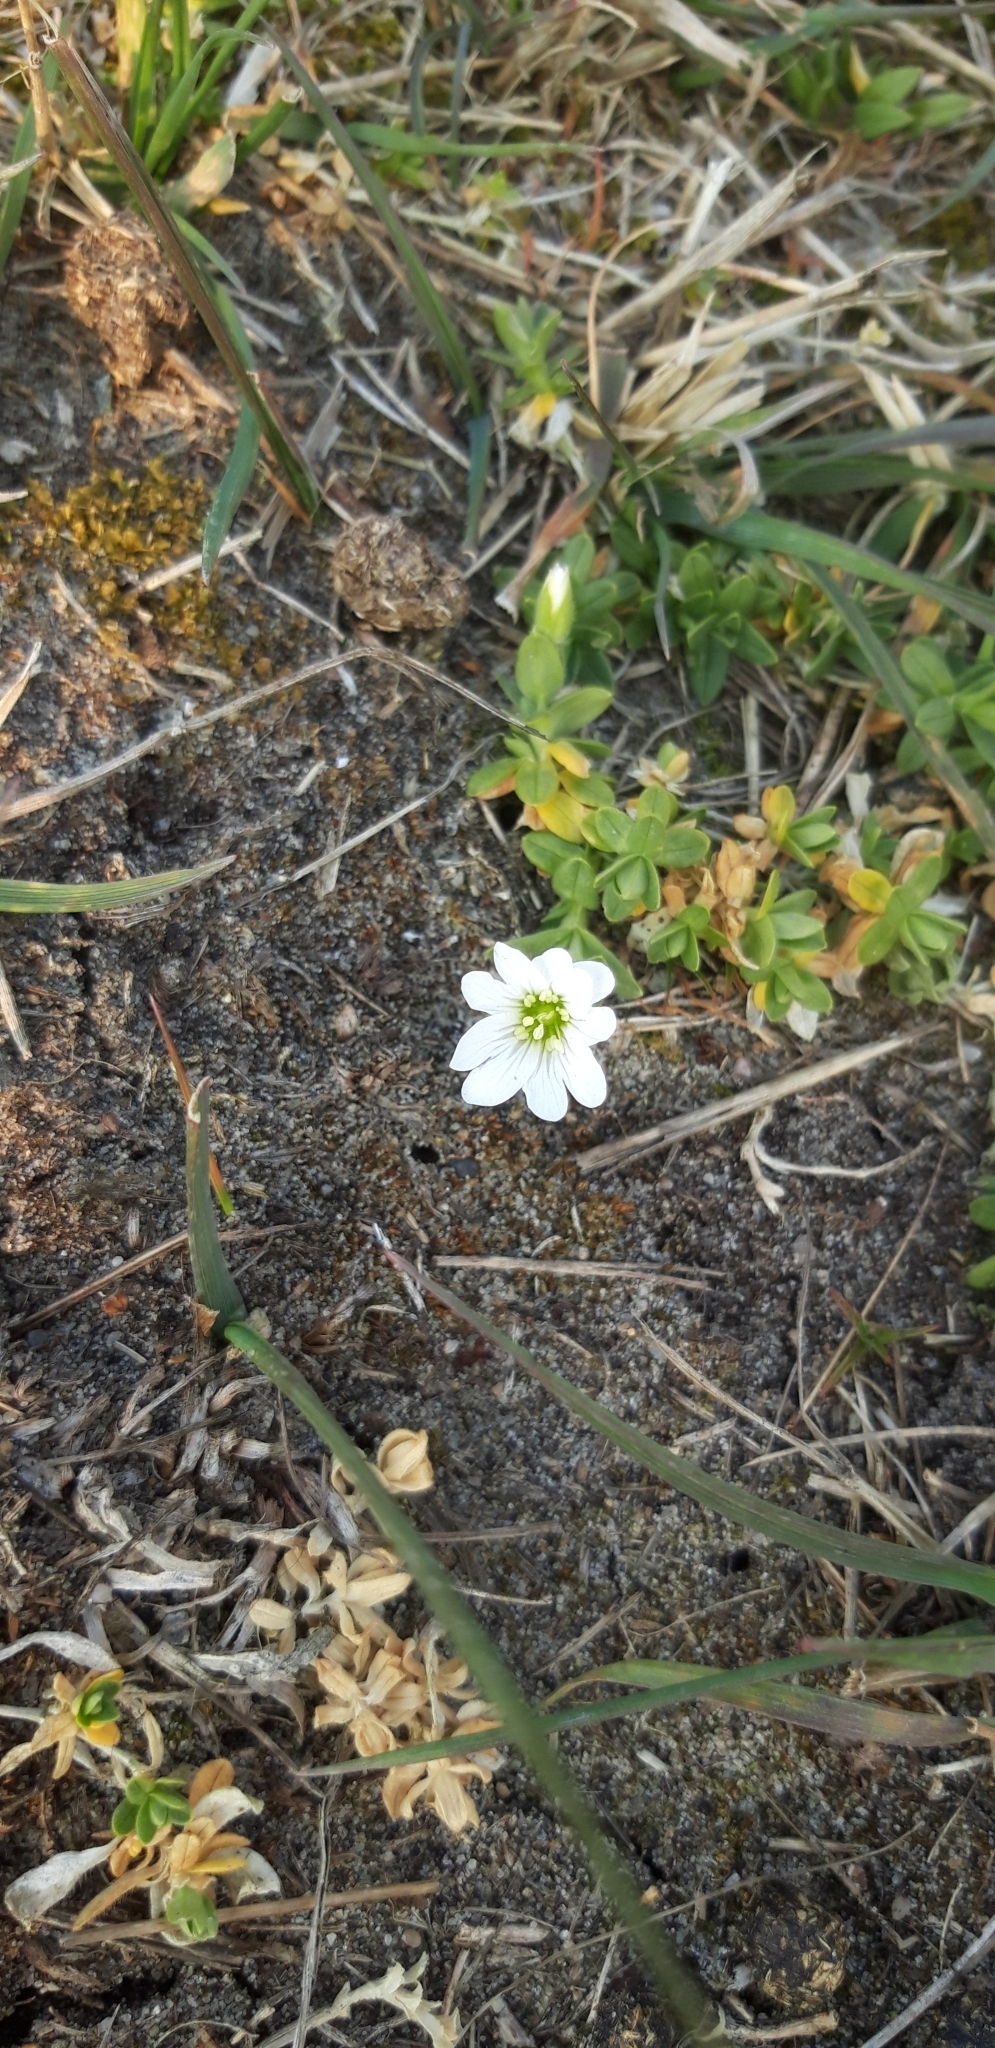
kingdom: Plantae
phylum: Tracheophyta
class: Magnoliopsida
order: Caryophyllales
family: Caryophyllaceae
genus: Cerastium
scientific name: Cerastium arvense
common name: Field mouse-ear
